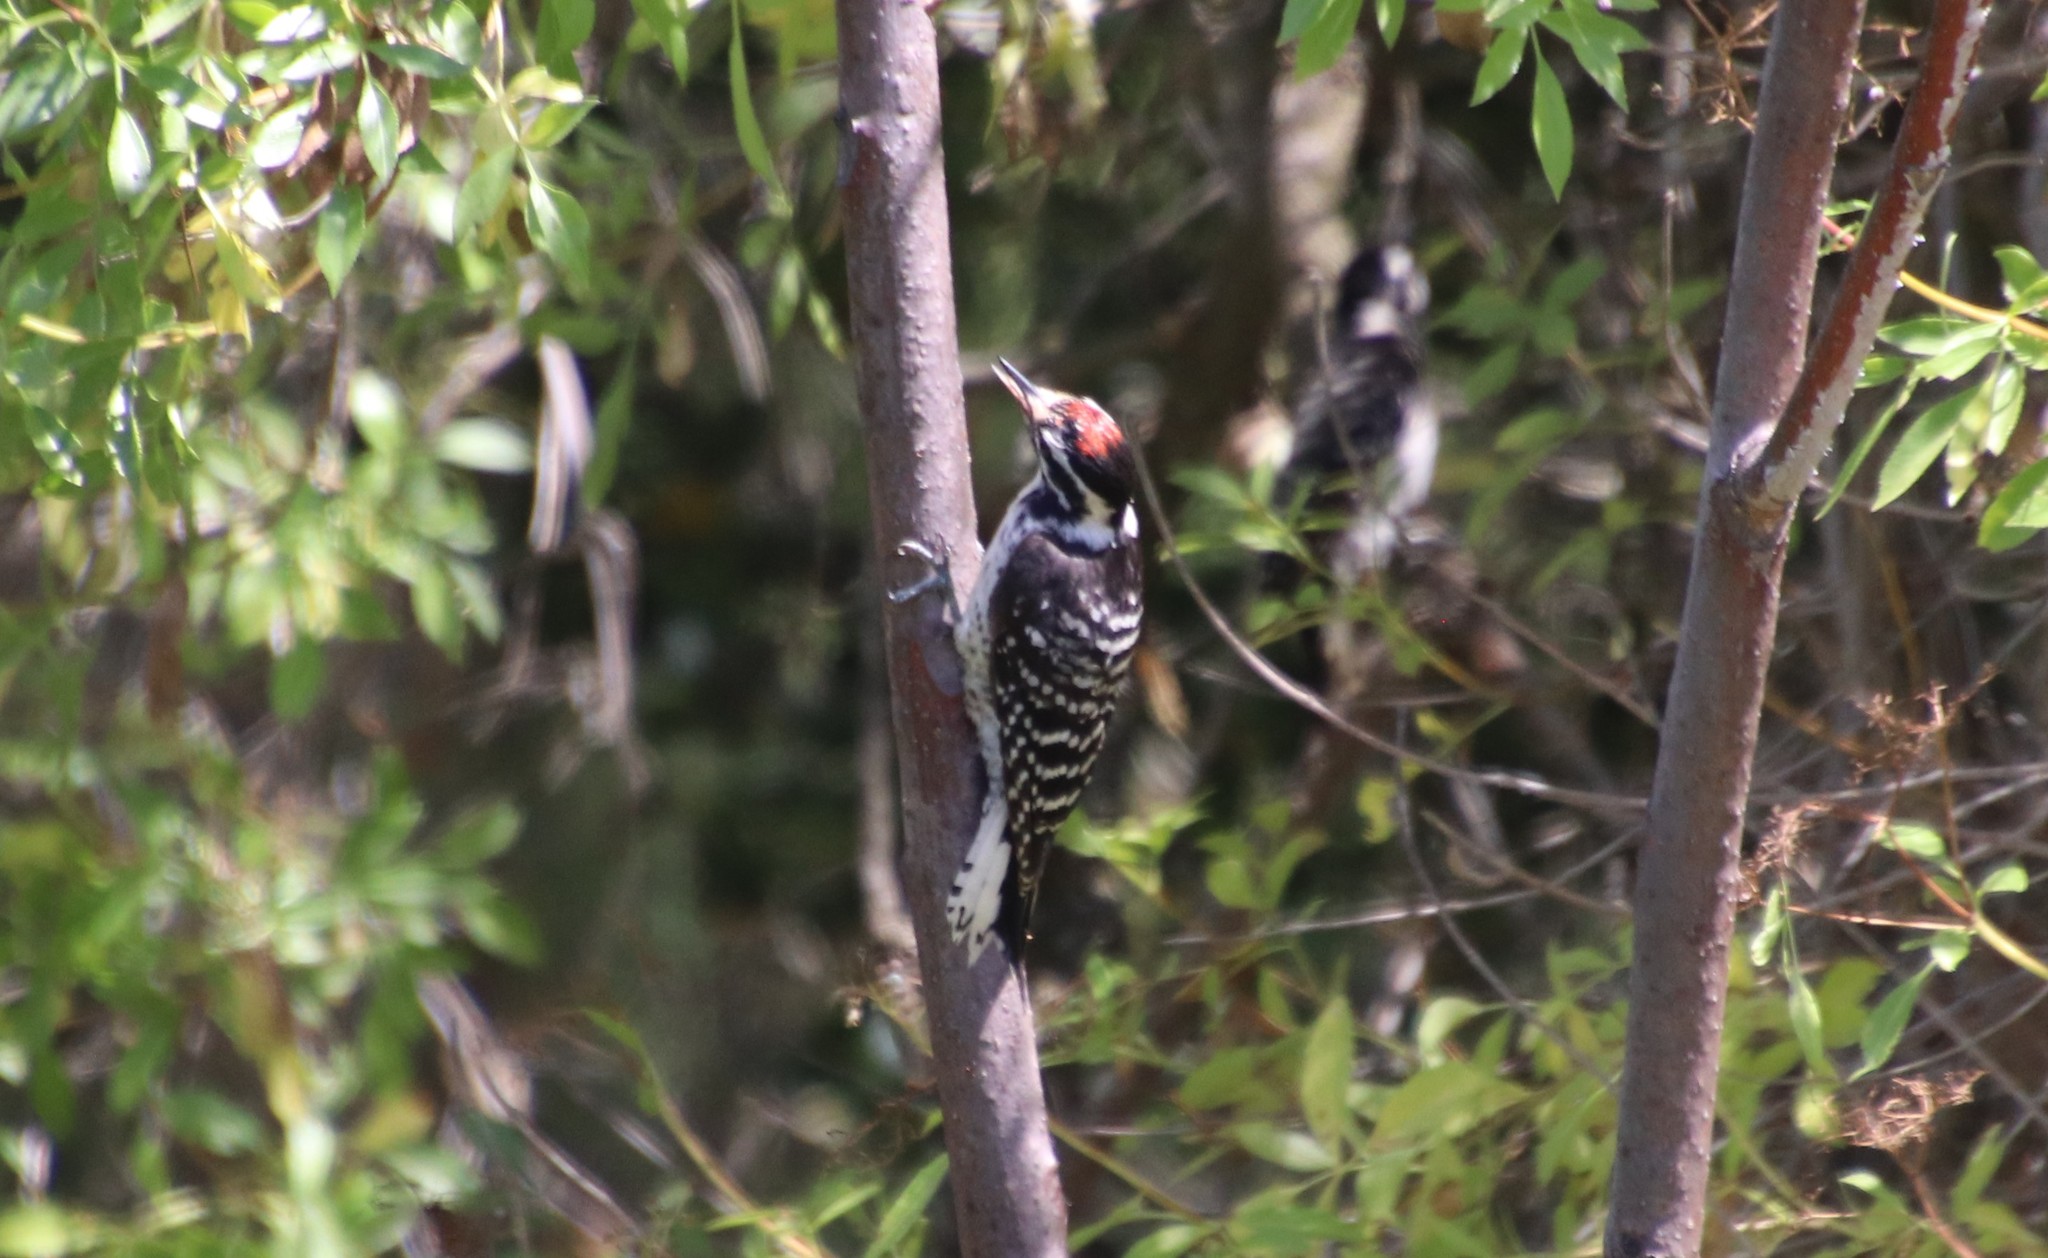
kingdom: Animalia
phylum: Chordata
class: Aves
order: Piciformes
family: Picidae
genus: Dryobates
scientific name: Dryobates nuttallii
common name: Nuttall's woodpecker
